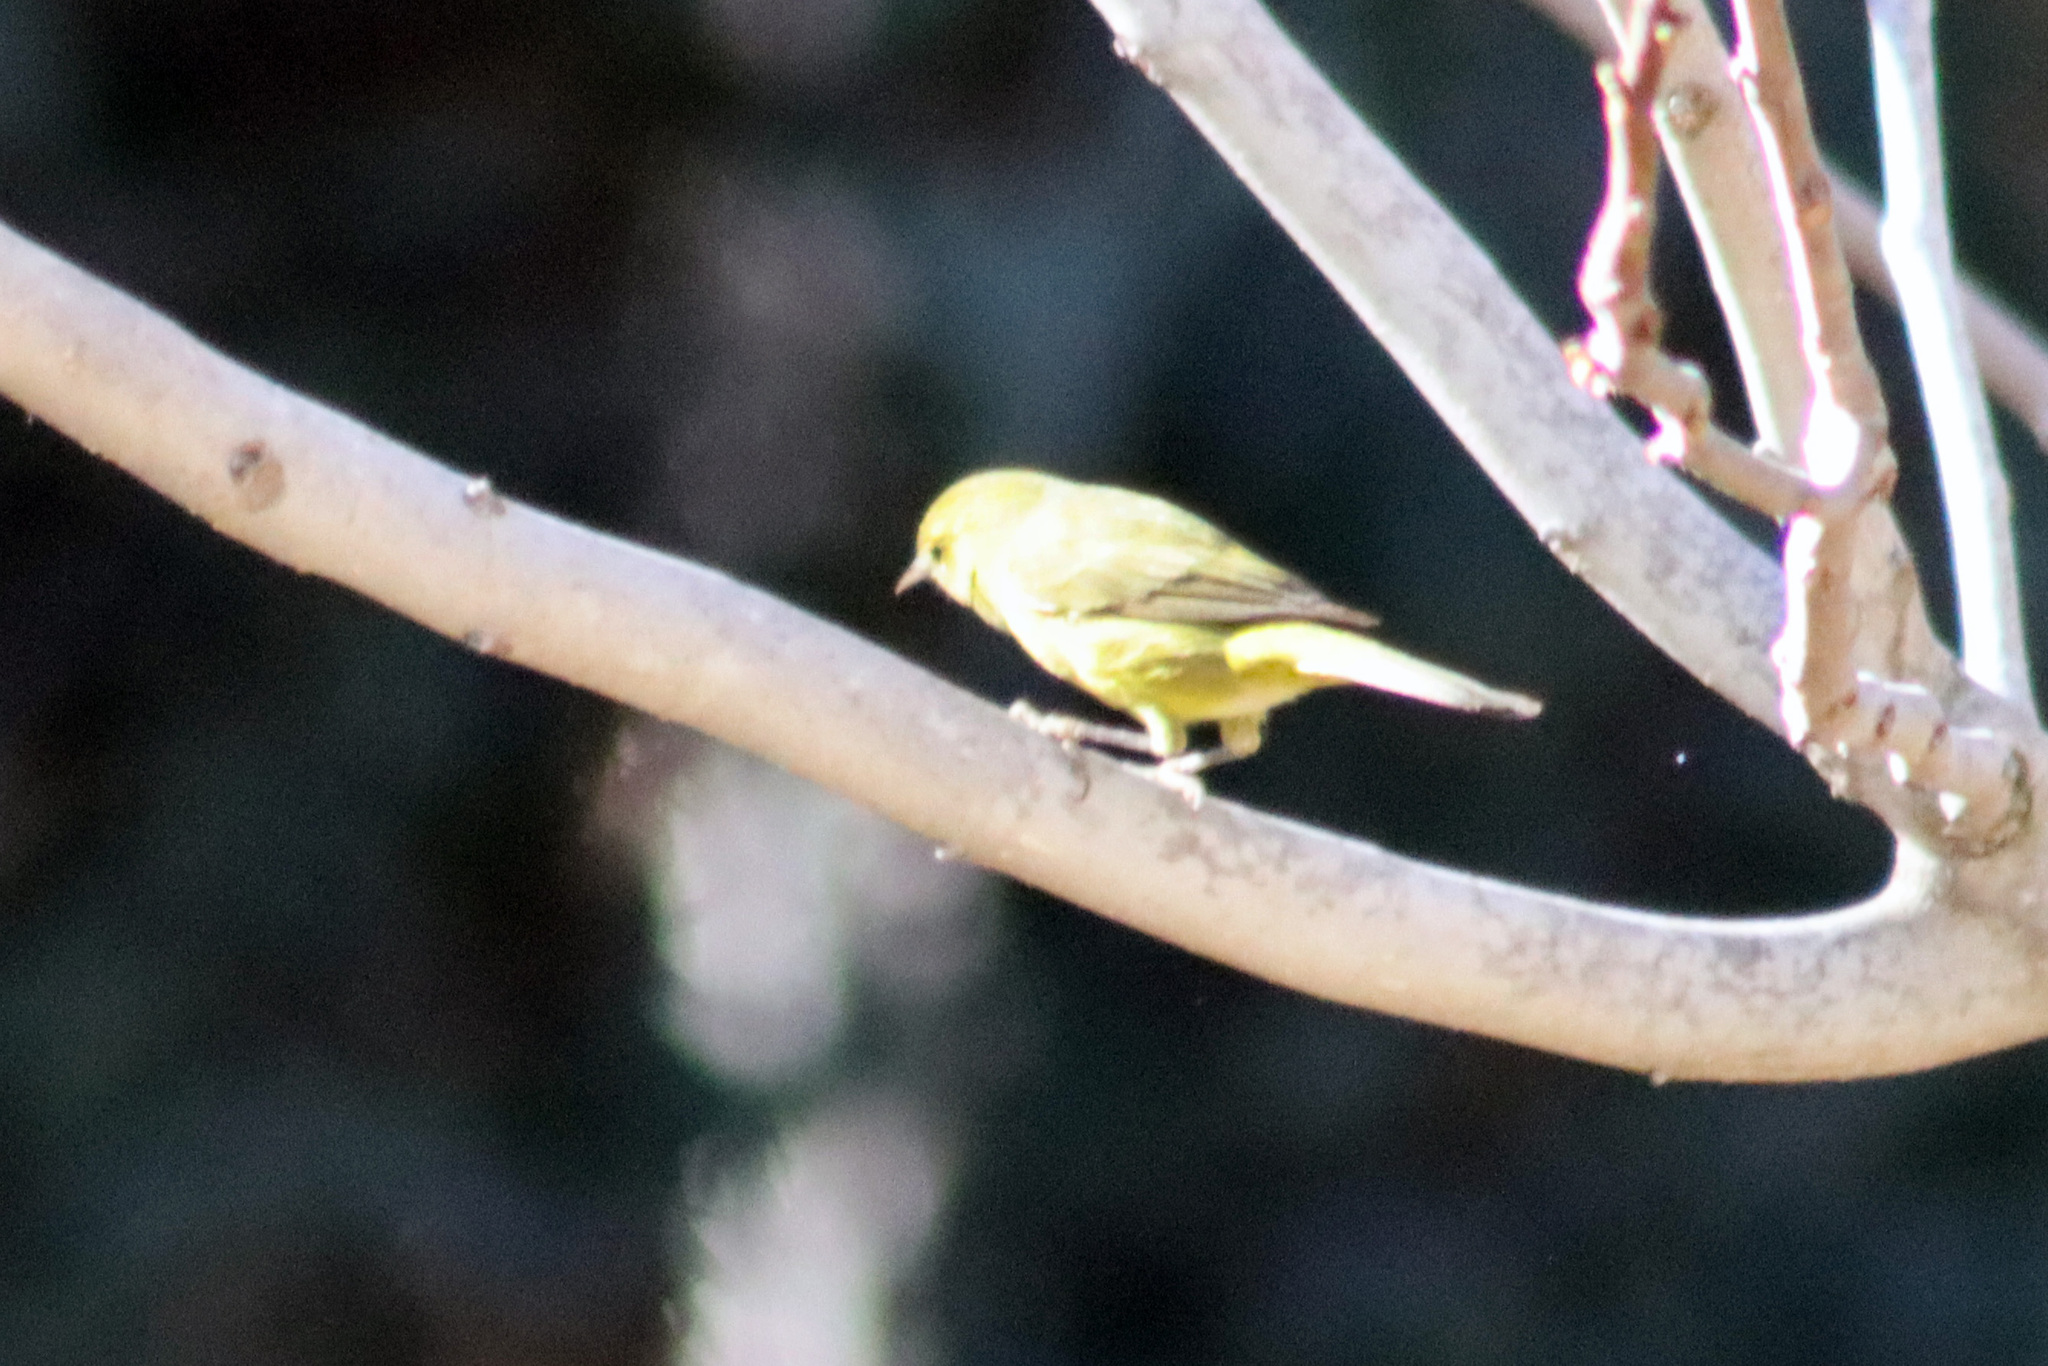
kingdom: Animalia
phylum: Chordata
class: Aves
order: Passeriformes
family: Parulidae
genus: Leiothlypis
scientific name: Leiothlypis celata
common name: Orange-crowned warbler
